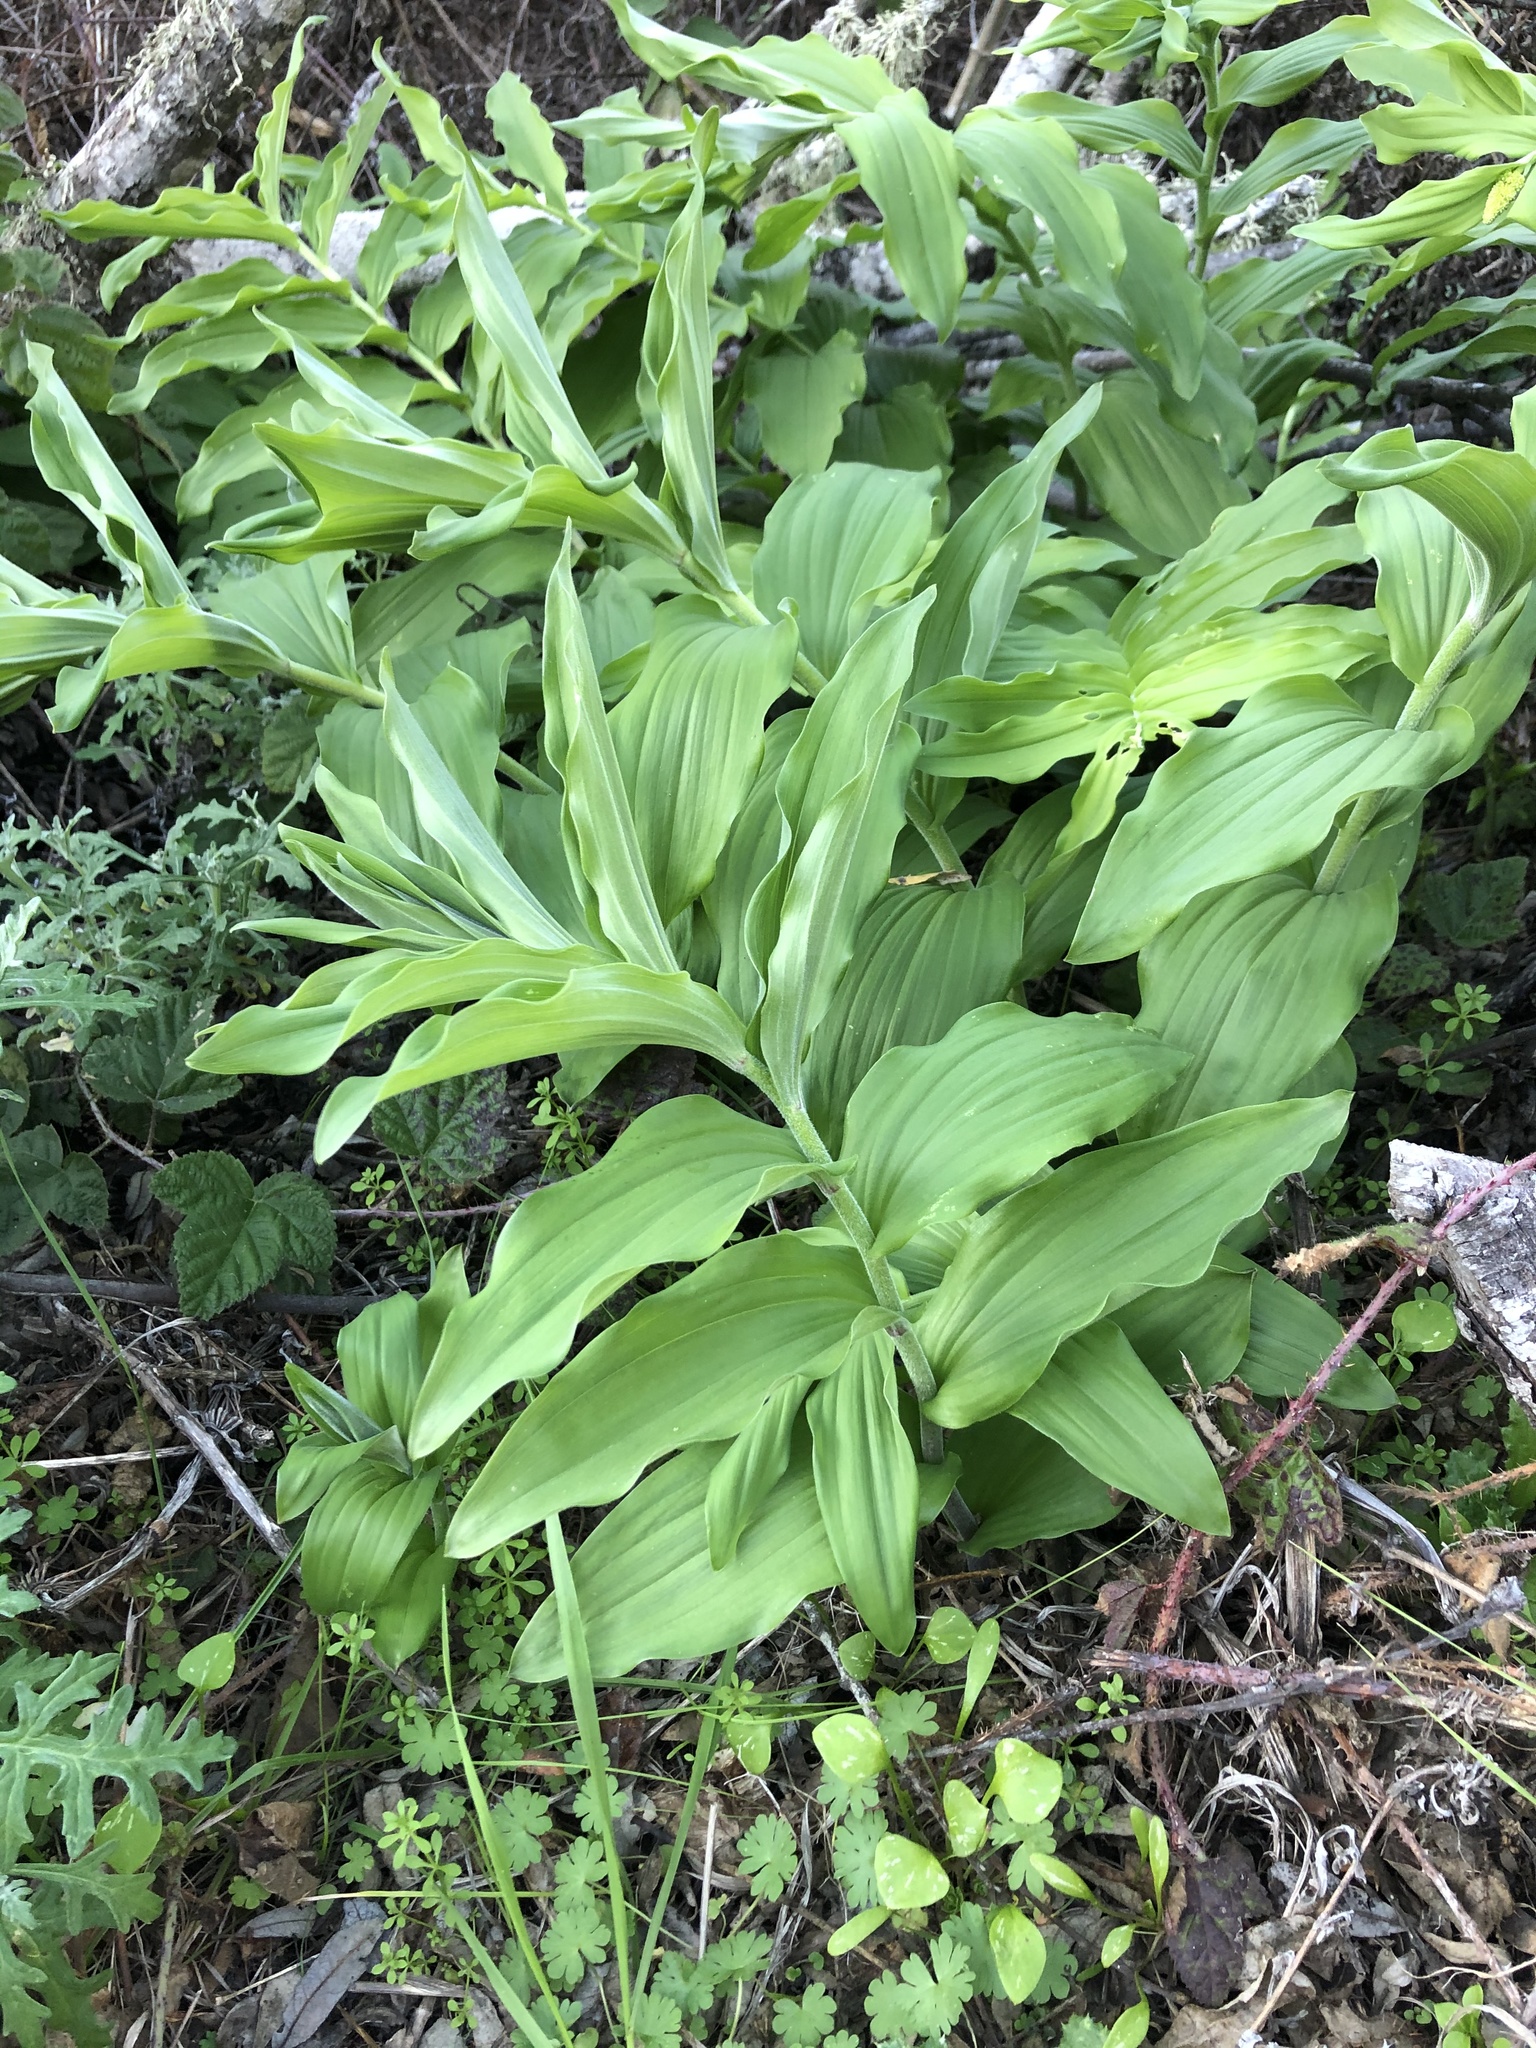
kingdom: Plantae
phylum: Tracheophyta
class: Liliopsida
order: Asparagales
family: Asparagaceae
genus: Maianthemum
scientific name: Maianthemum racemosum
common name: False spikenard
